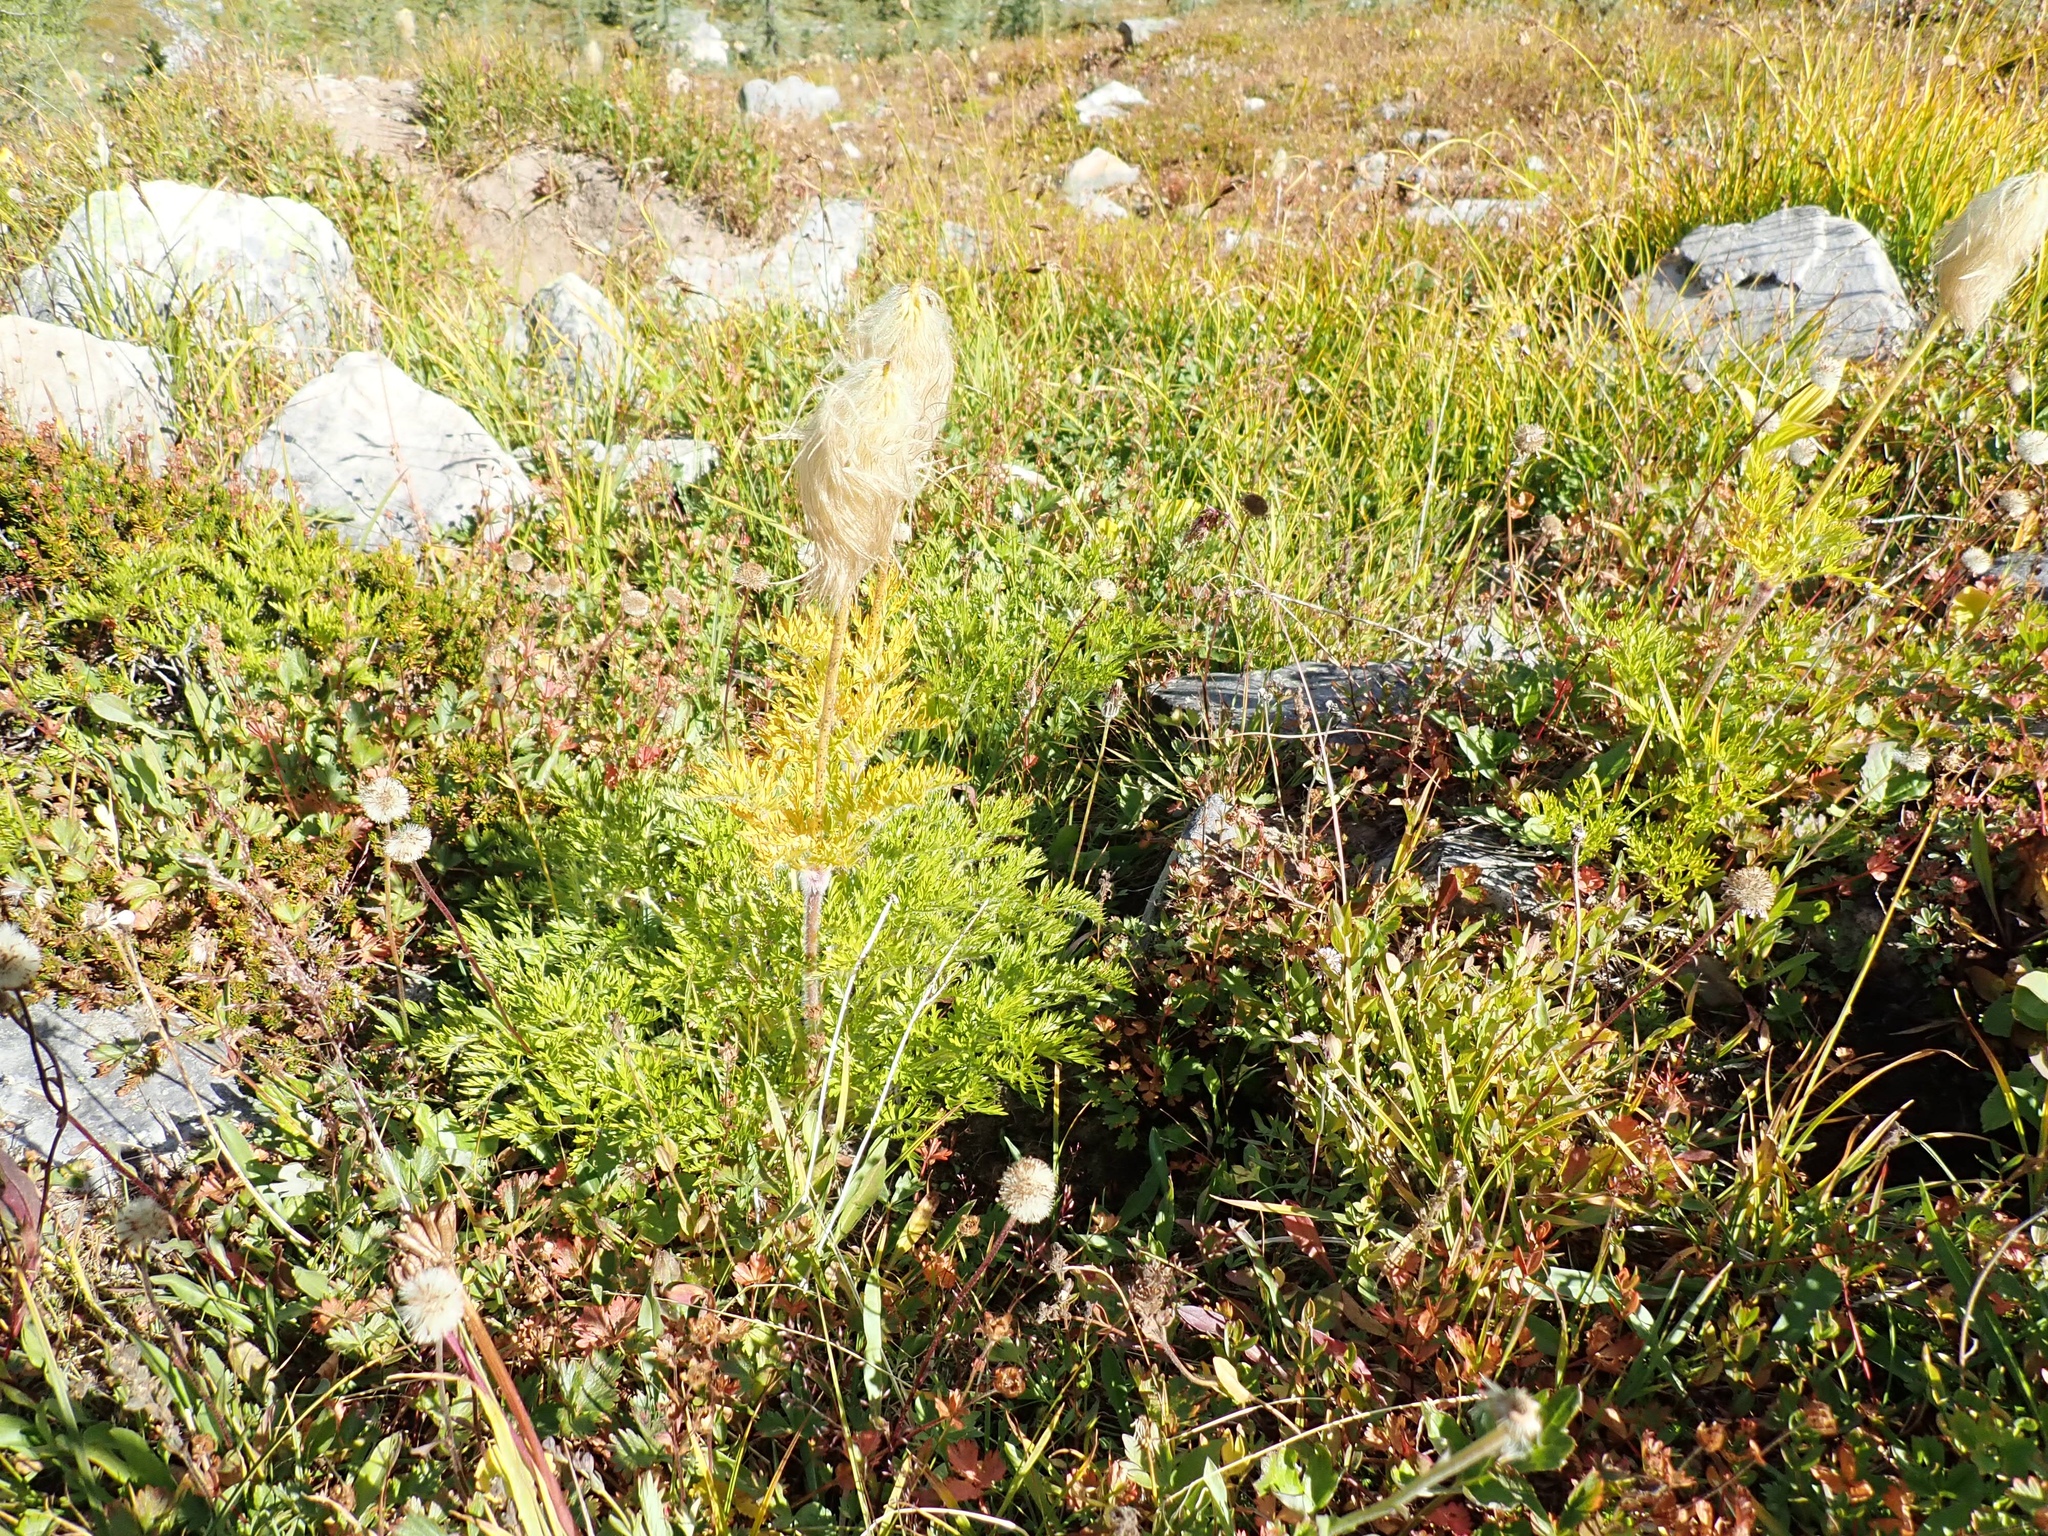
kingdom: Plantae
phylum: Tracheophyta
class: Magnoliopsida
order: Ranunculales
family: Ranunculaceae
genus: Pulsatilla
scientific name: Pulsatilla occidentalis
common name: Mountain pasqueflower
